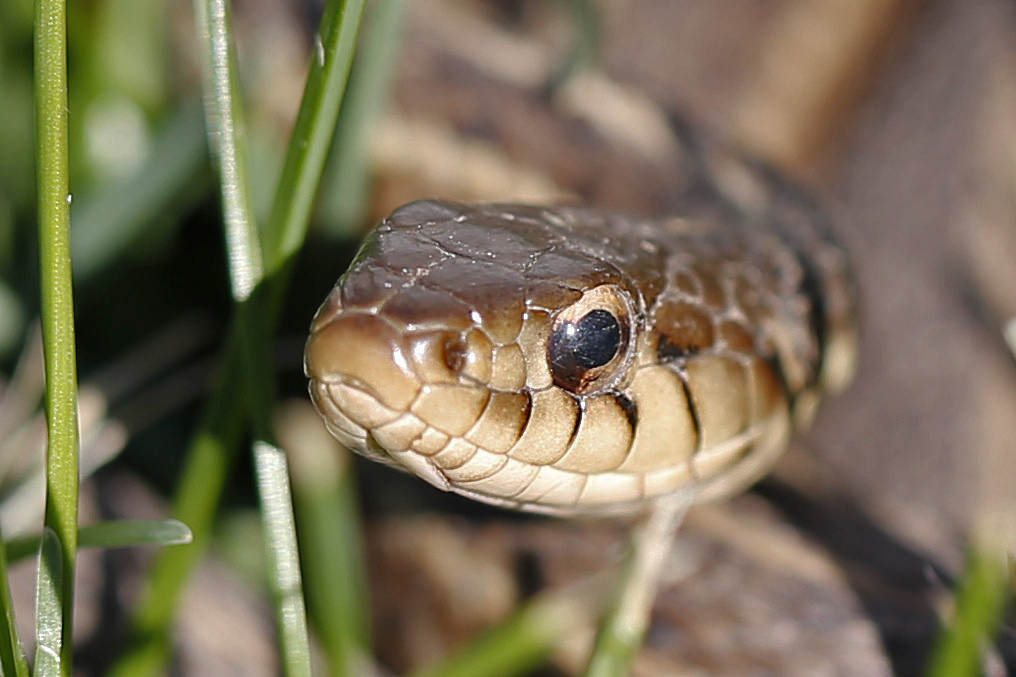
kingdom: Animalia
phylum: Chordata
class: Squamata
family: Colubridae
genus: Thamnophis
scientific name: Thamnophis sirtalis
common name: Common garter snake
